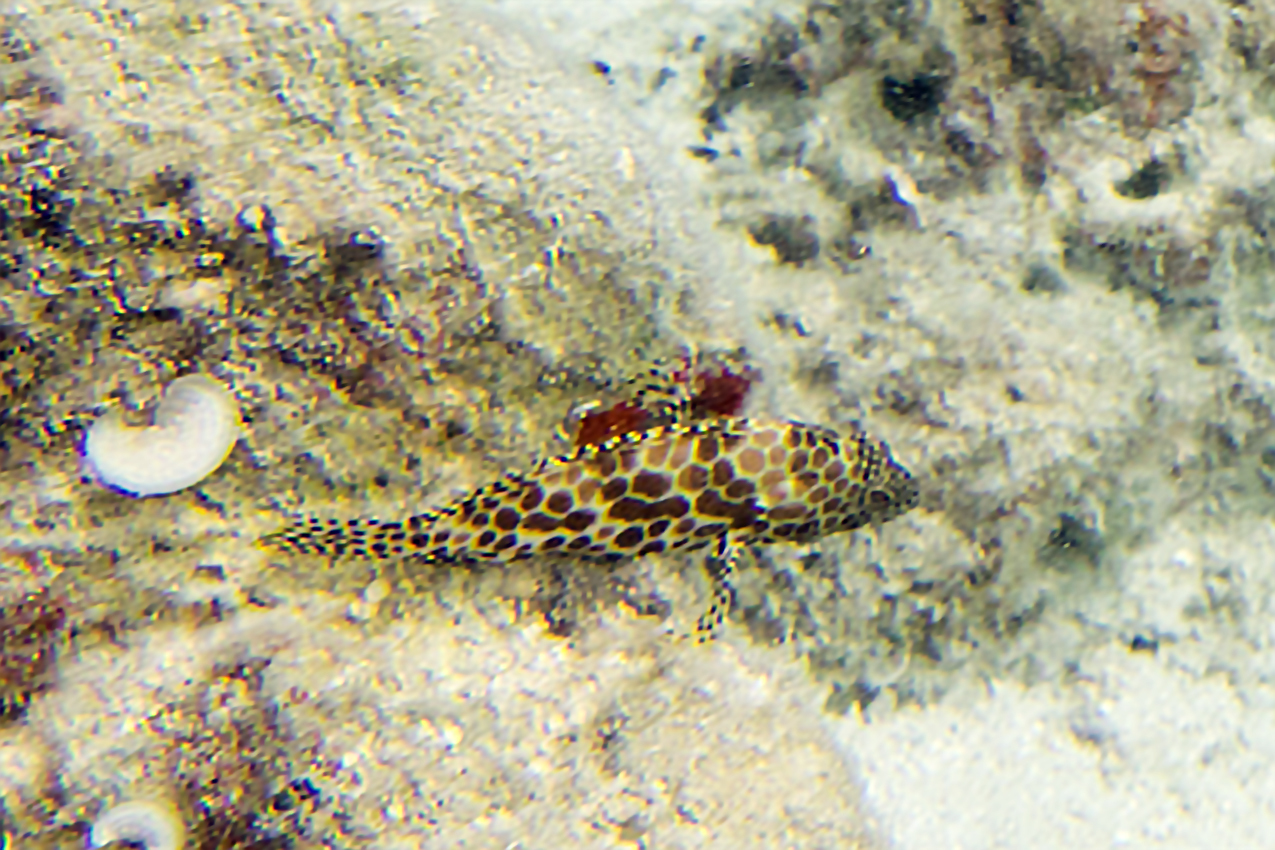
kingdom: Animalia
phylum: Chordata
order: Perciformes
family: Serranidae
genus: Epinephelus
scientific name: Epinephelus merra
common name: Honeycomb grouper
